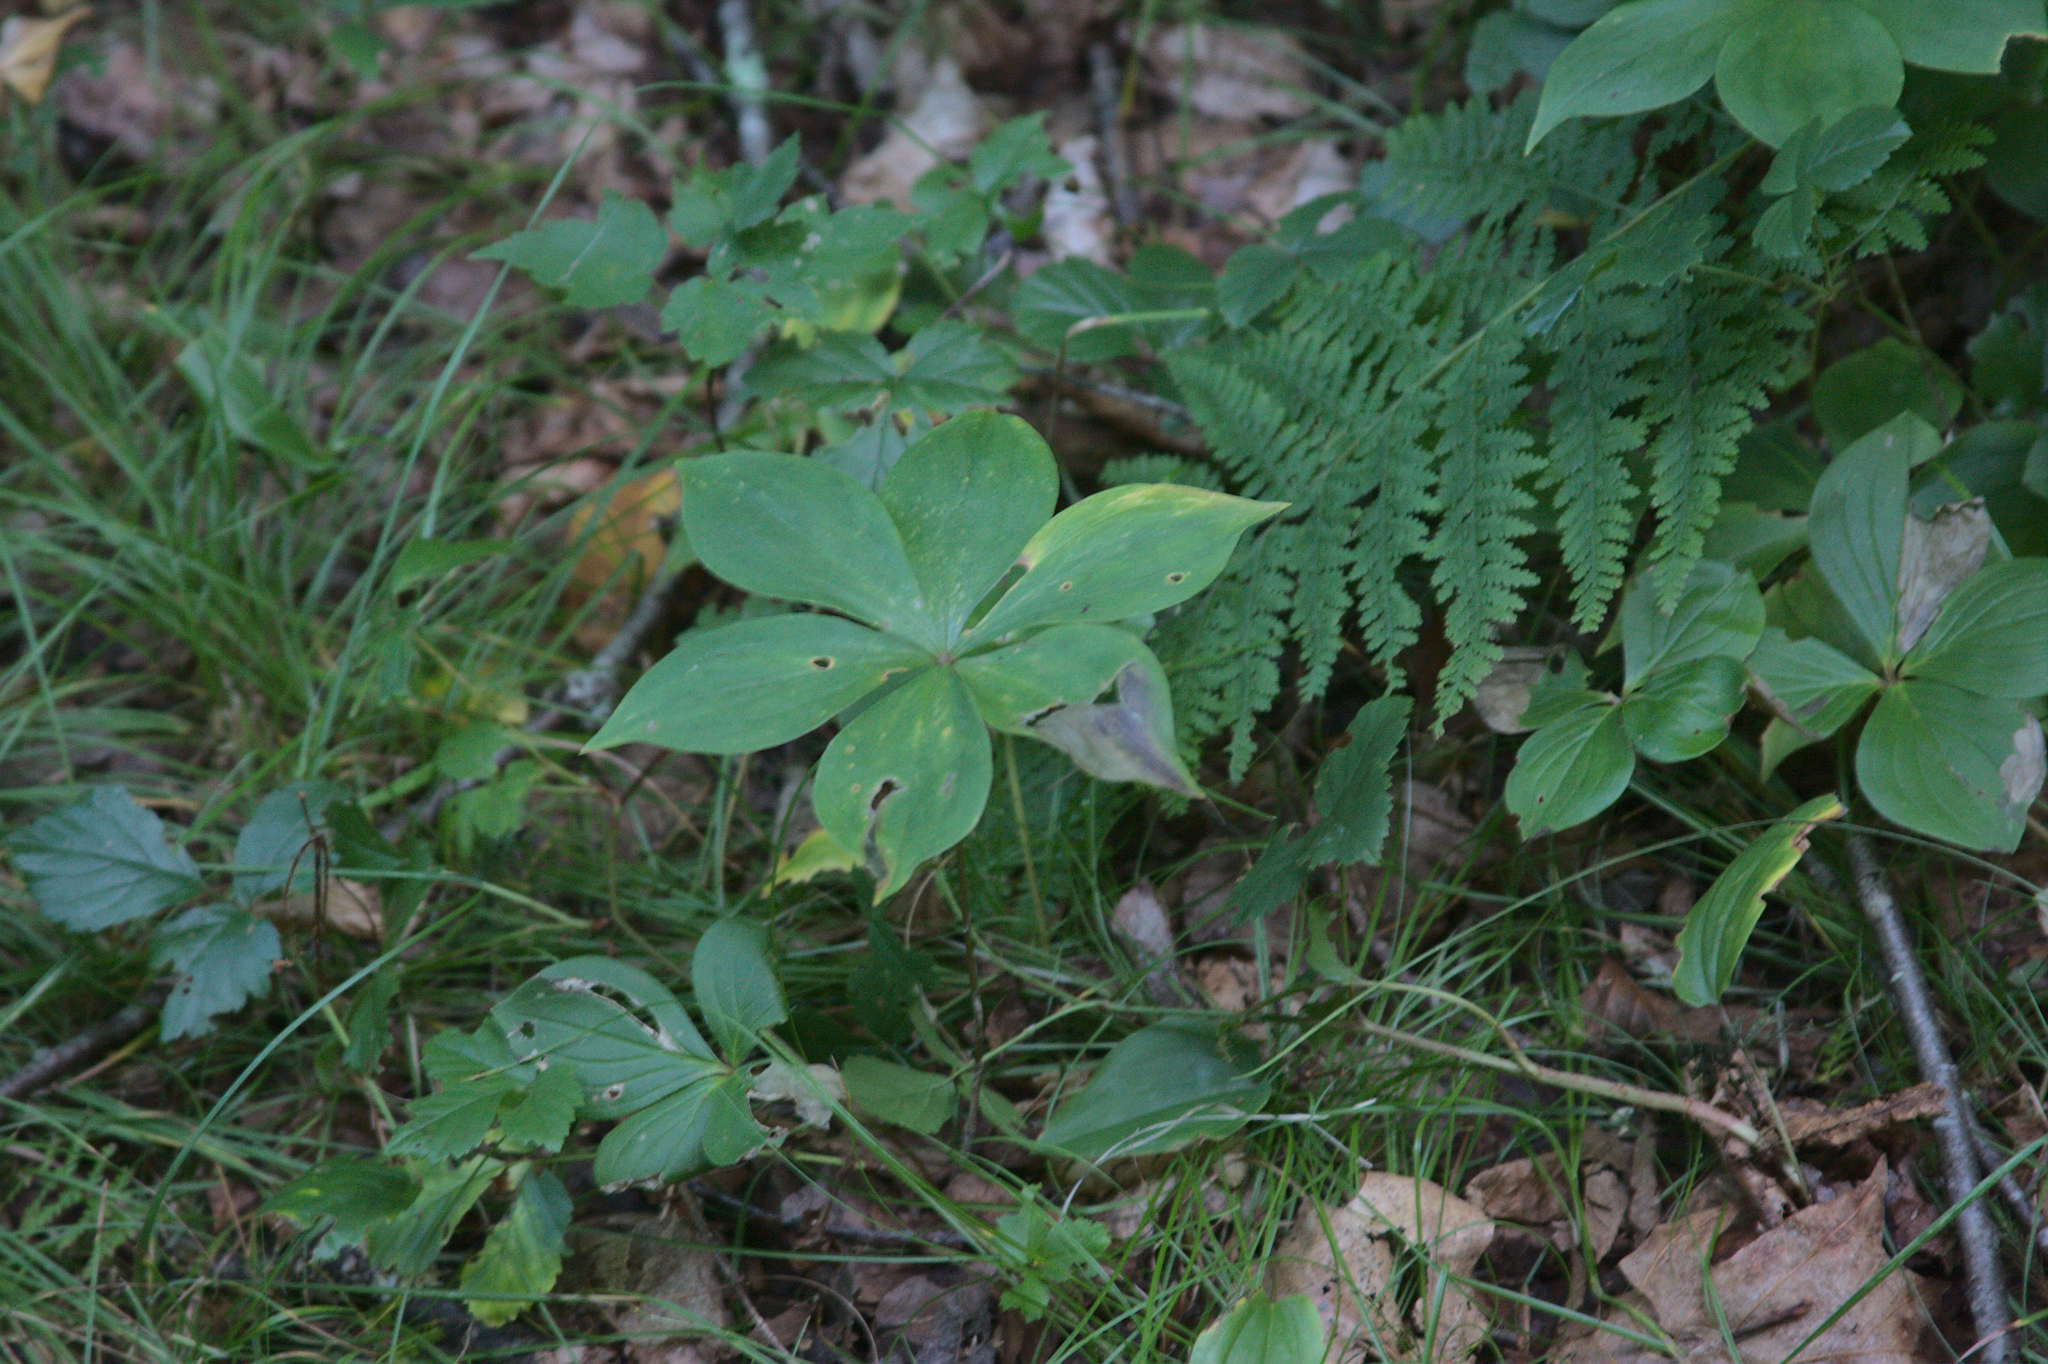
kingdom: Plantae
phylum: Tracheophyta
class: Liliopsida
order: Liliales
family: Liliaceae
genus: Medeola
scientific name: Medeola virginiana
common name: Indian cucumber-root
